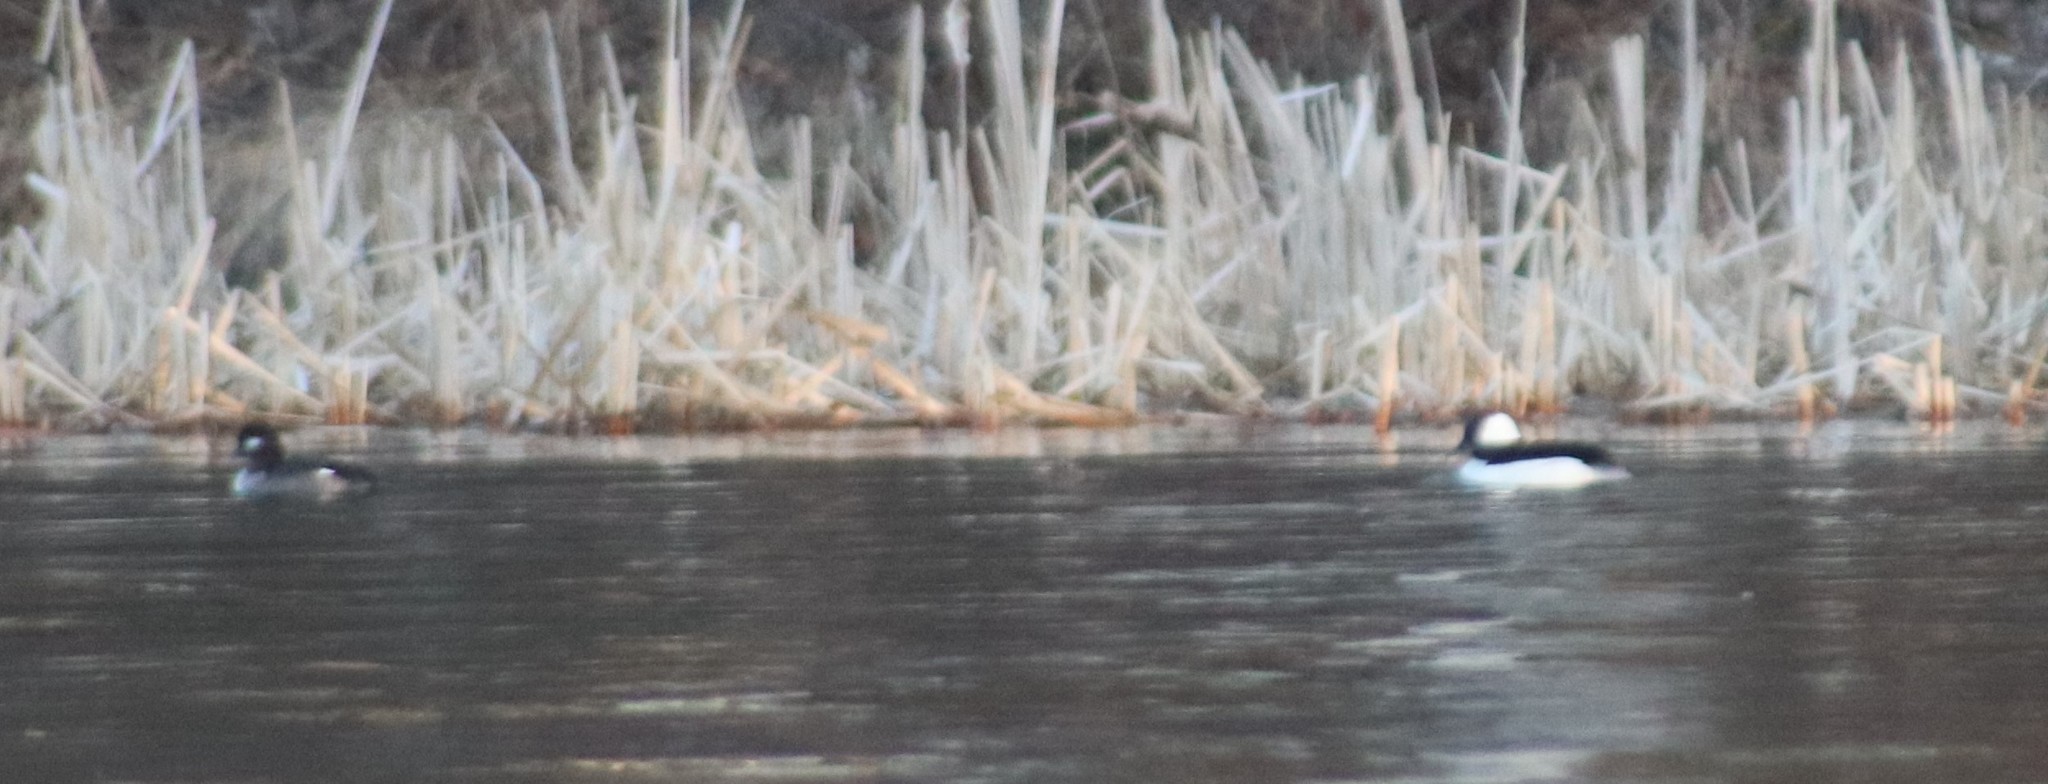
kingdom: Animalia
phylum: Chordata
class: Aves
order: Anseriformes
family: Anatidae
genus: Bucephala
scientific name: Bucephala albeola
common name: Bufflehead
